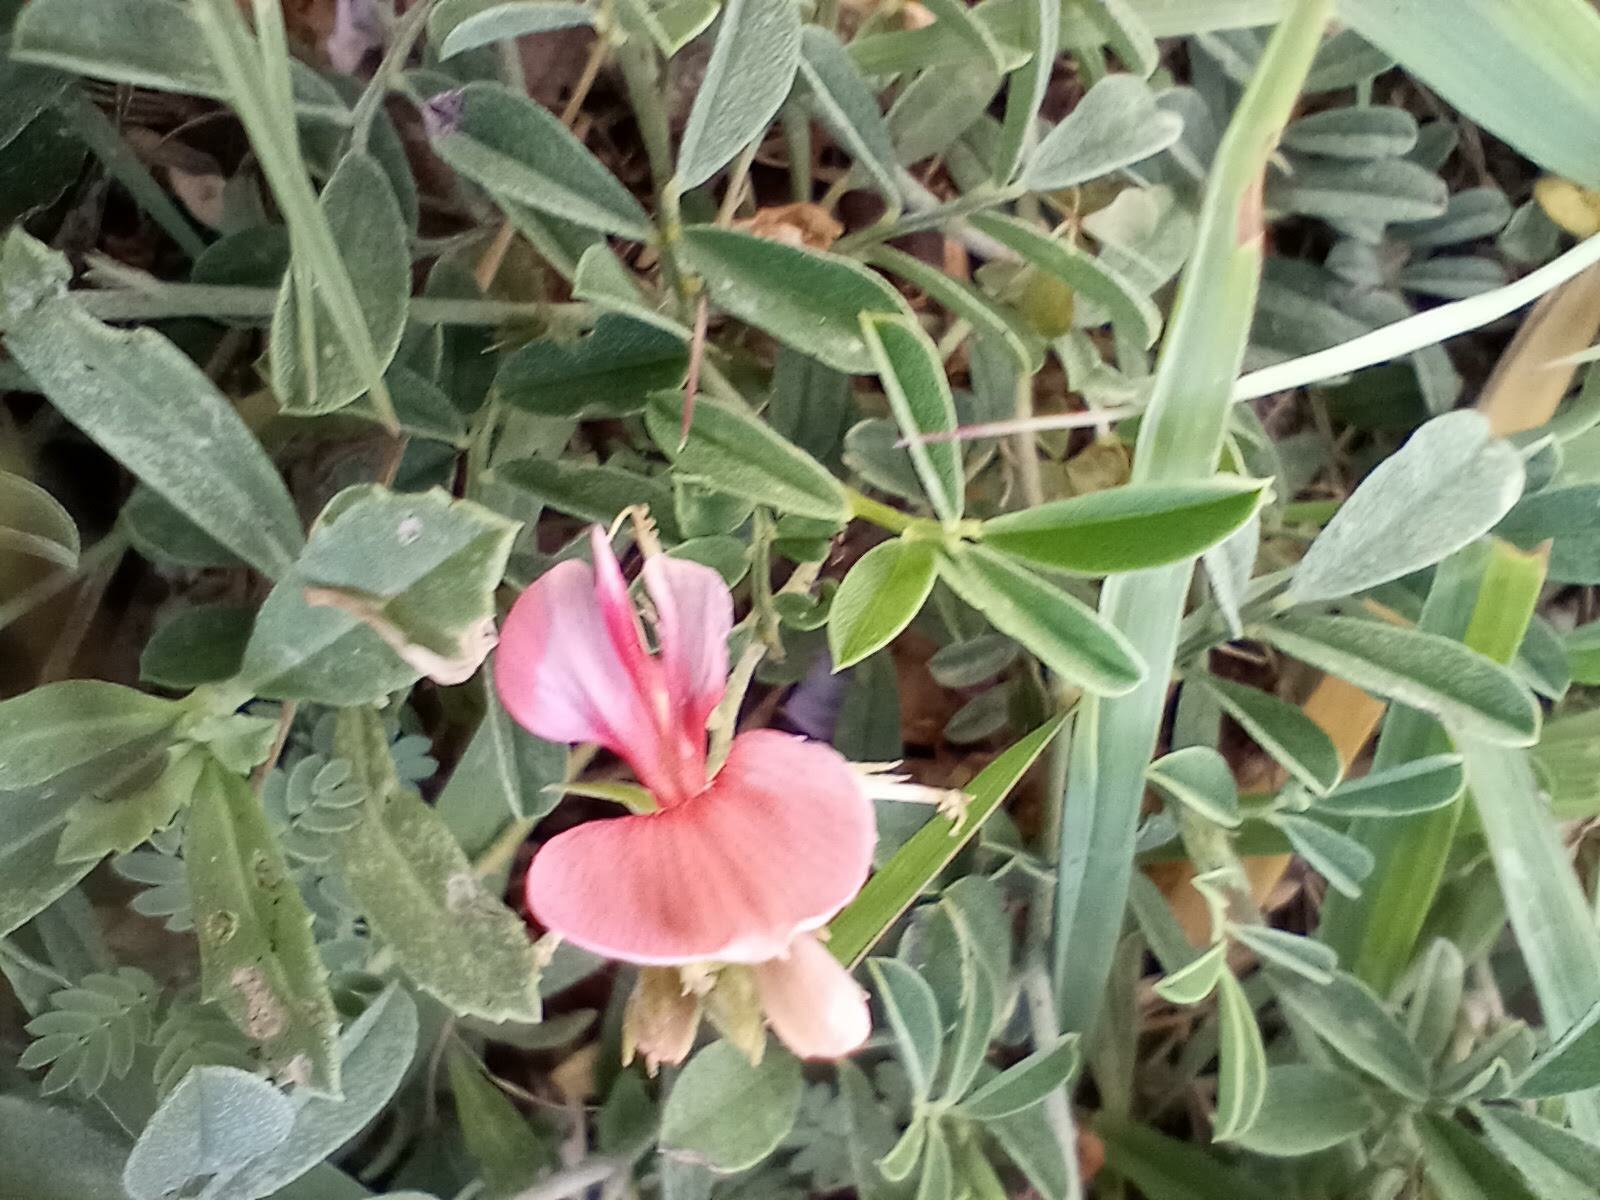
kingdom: Plantae
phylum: Tracheophyta
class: Magnoliopsida
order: Fabales
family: Fabaceae
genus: Indigofera
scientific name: Indigofera miniata
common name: Coast indigo
